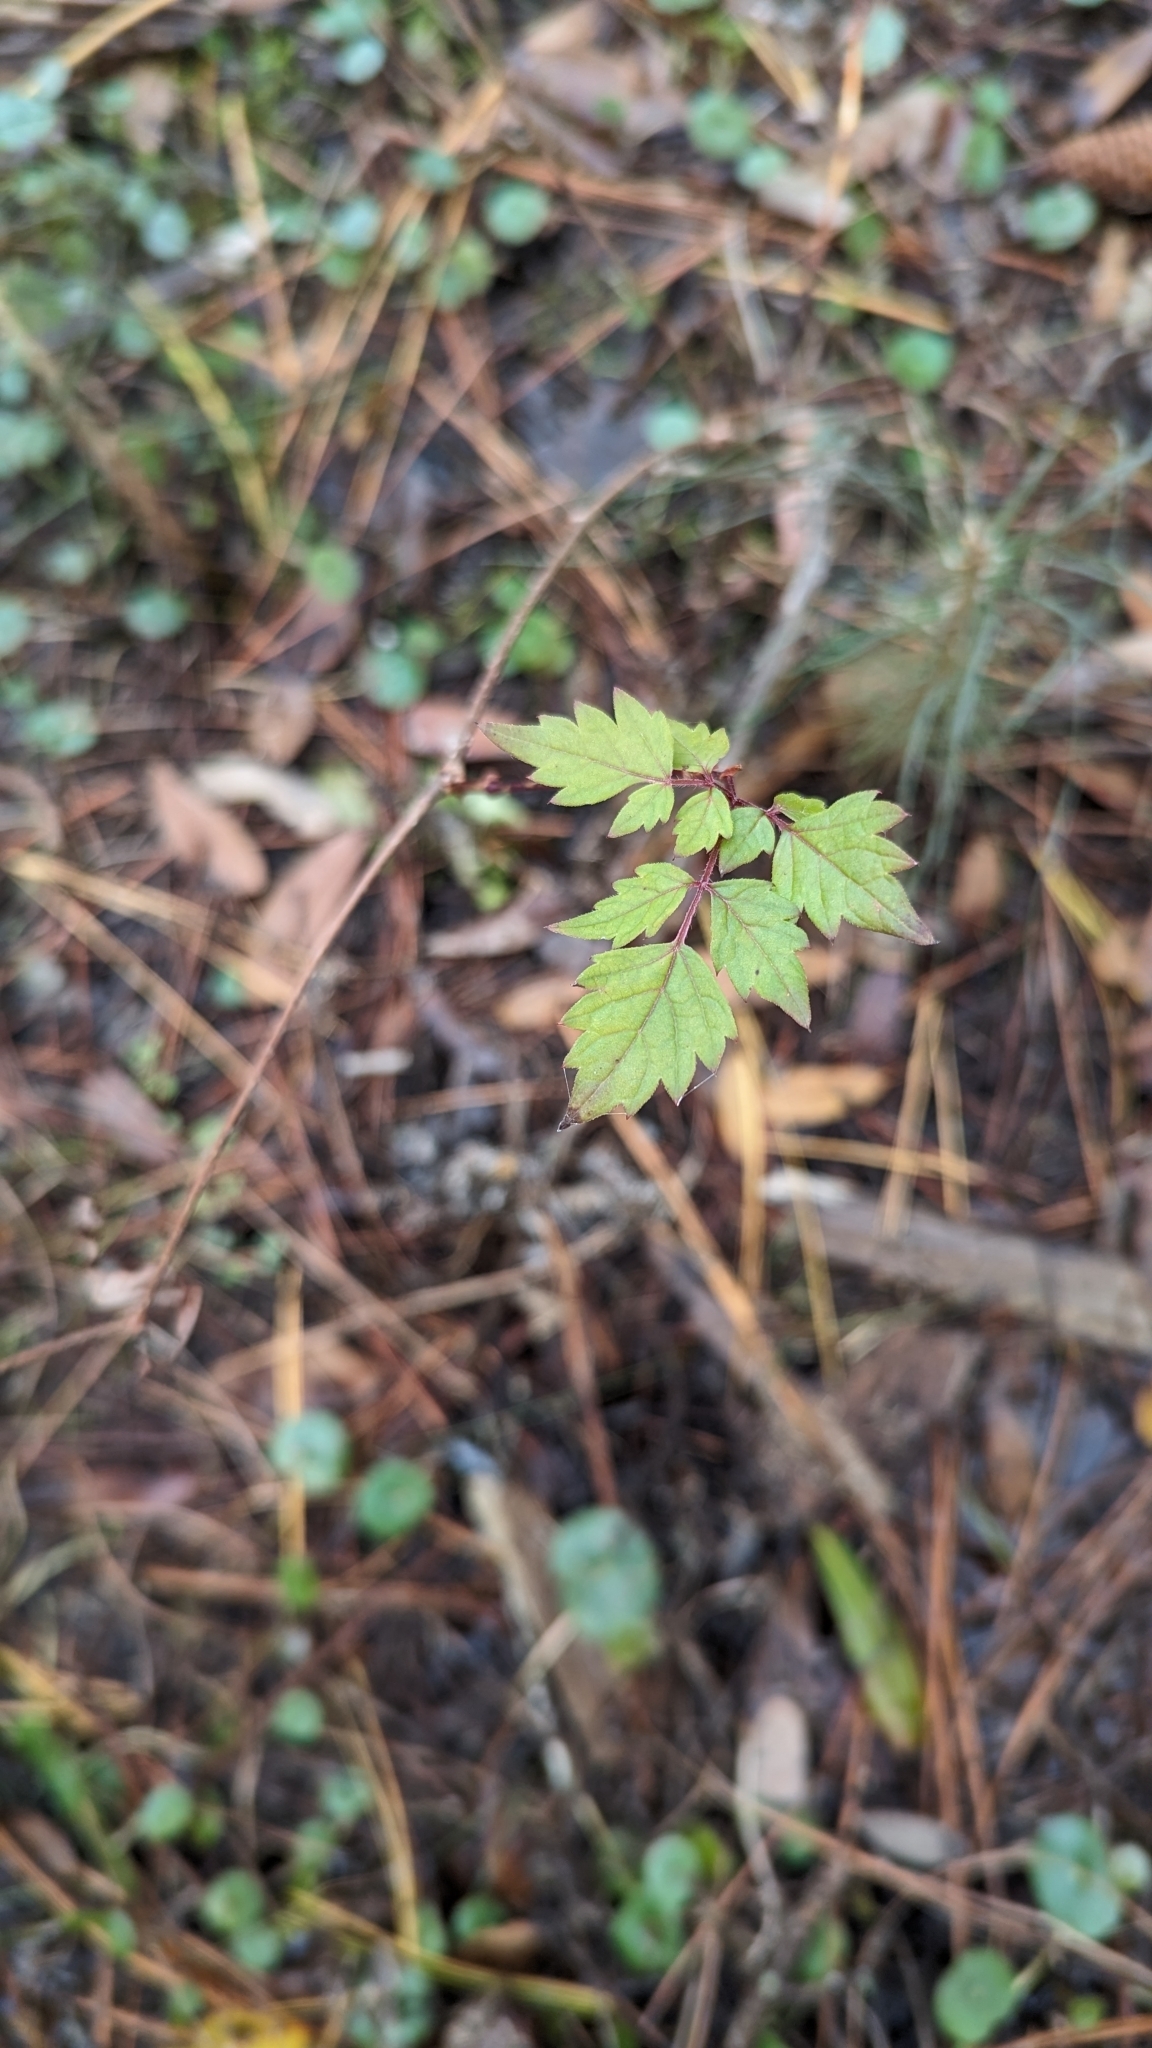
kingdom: Plantae
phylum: Tracheophyta
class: Magnoliopsida
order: Vitales
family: Vitaceae
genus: Nekemias
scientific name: Nekemias arborea
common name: Peppervine
